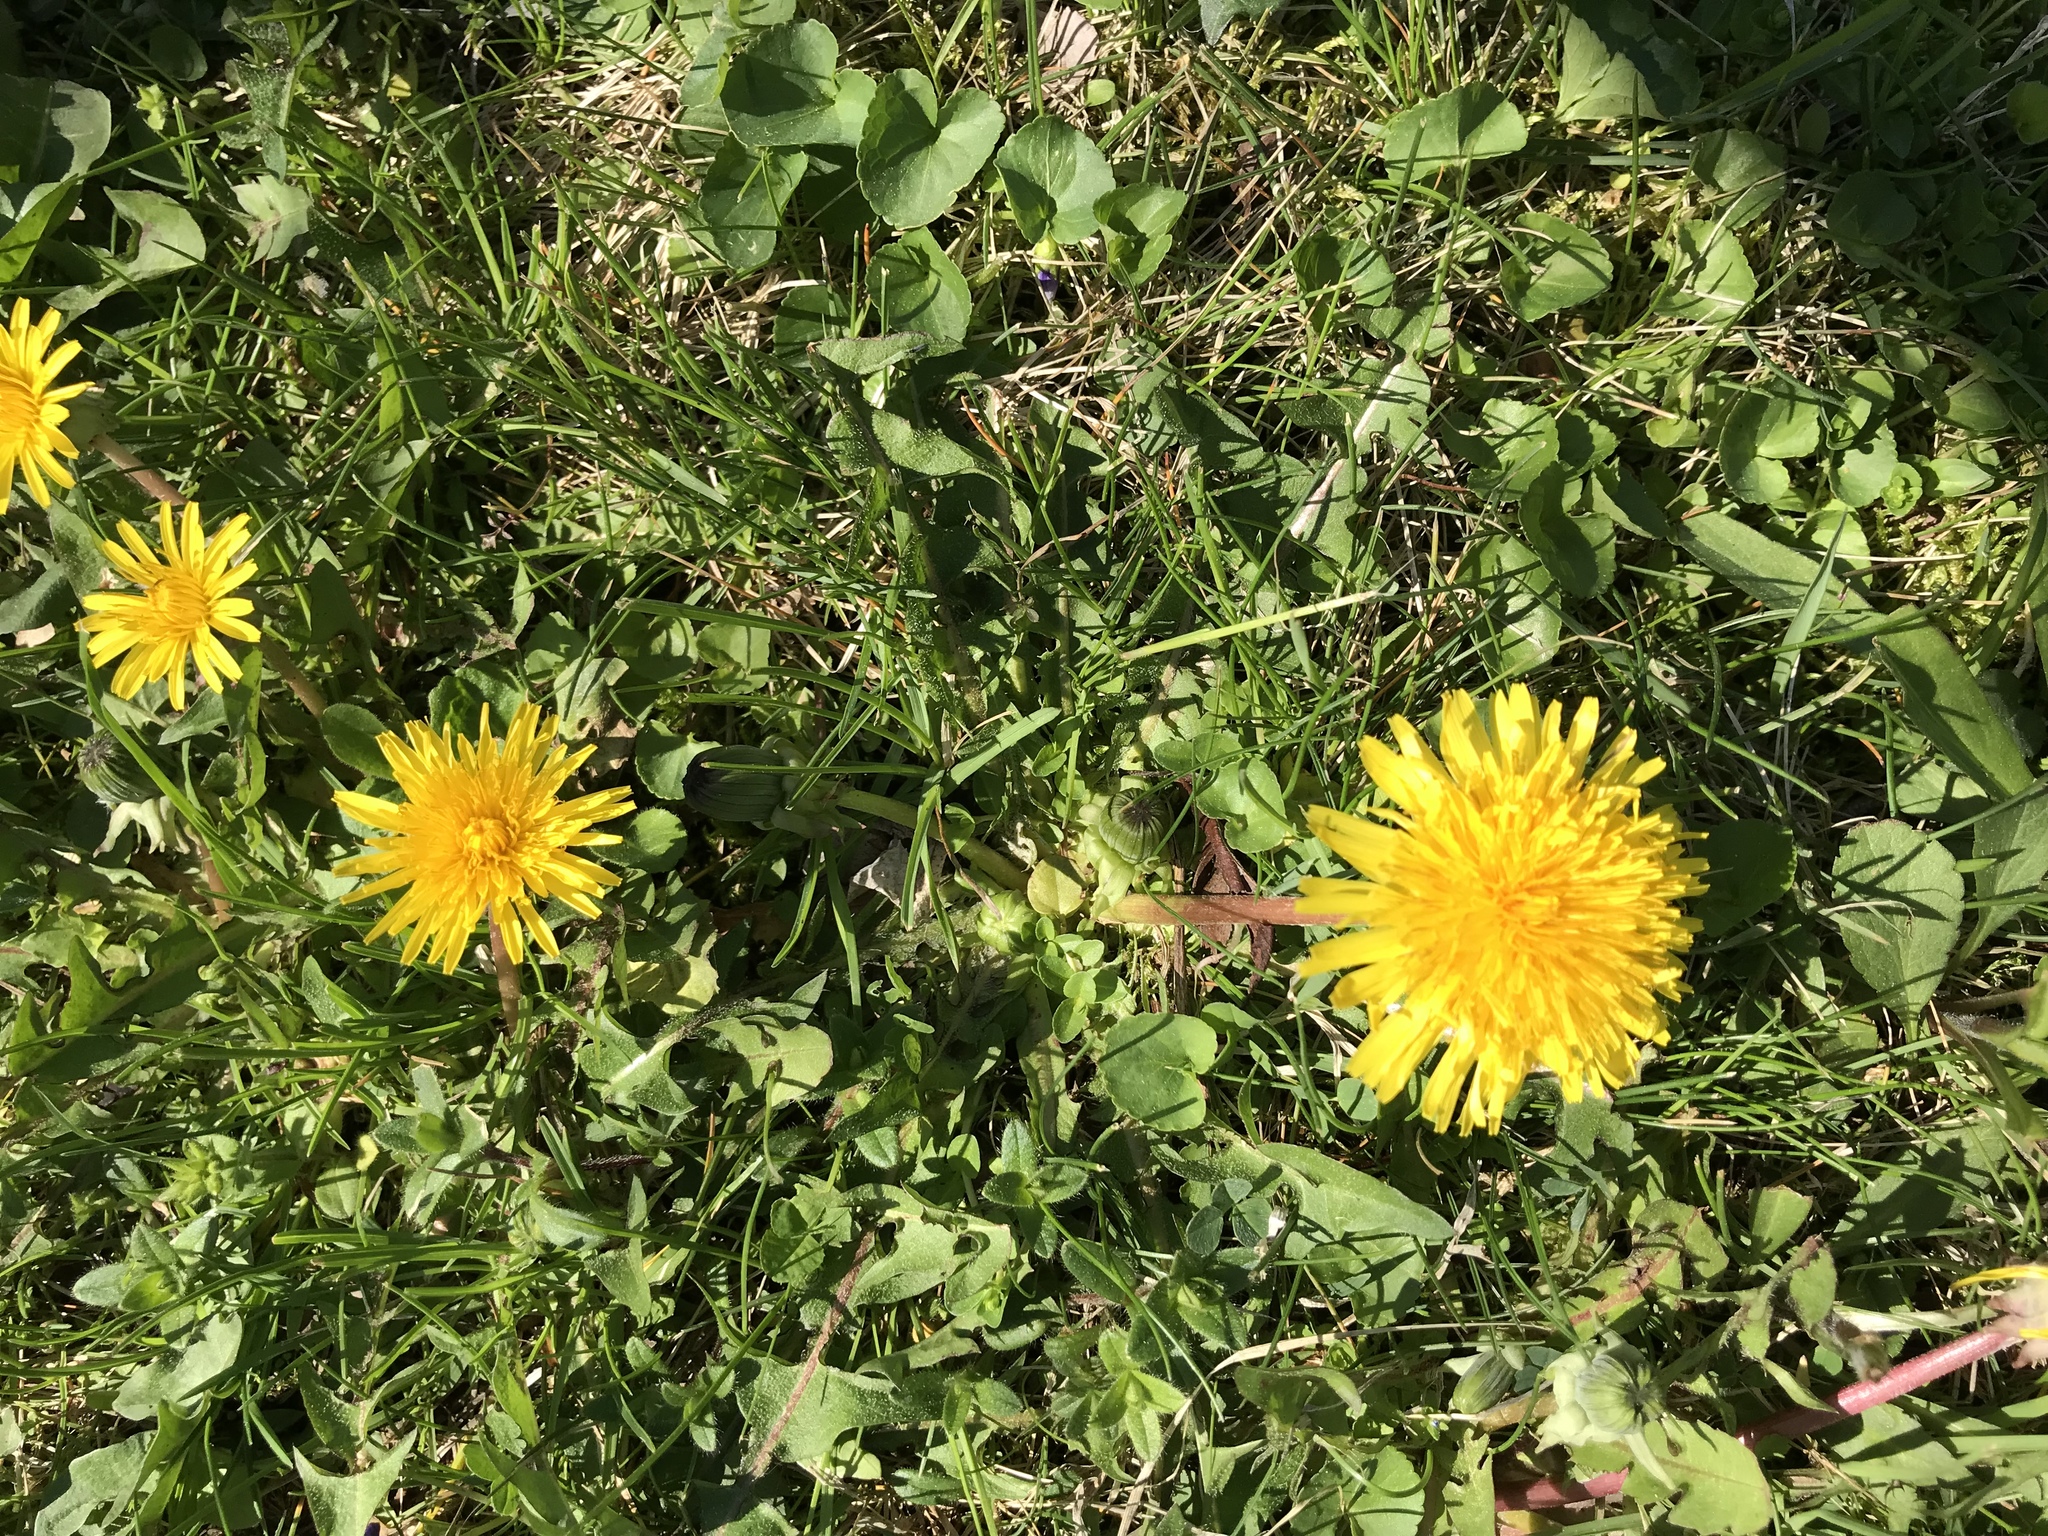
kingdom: Plantae
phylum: Tracheophyta
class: Magnoliopsida
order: Asterales
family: Asteraceae
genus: Taraxacum
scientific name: Taraxacum officinale
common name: Common dandelion
